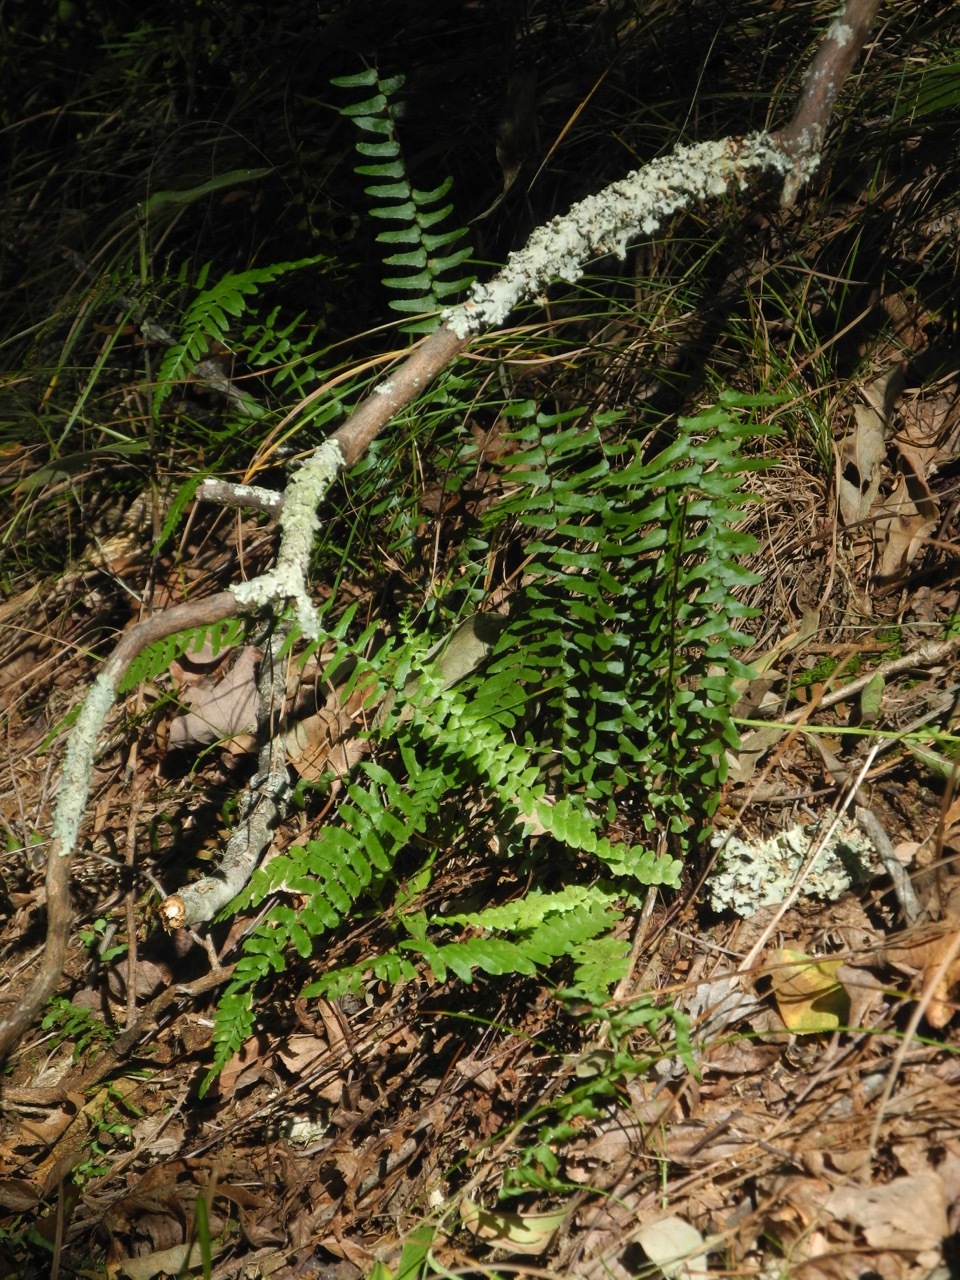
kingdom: Plantae
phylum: Tracheophyta
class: Polypodiopsida
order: Polypodiales
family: Aspleniaceae
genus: Asplenium
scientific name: Asplenium platyneuron
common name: Ebony spleenwort
